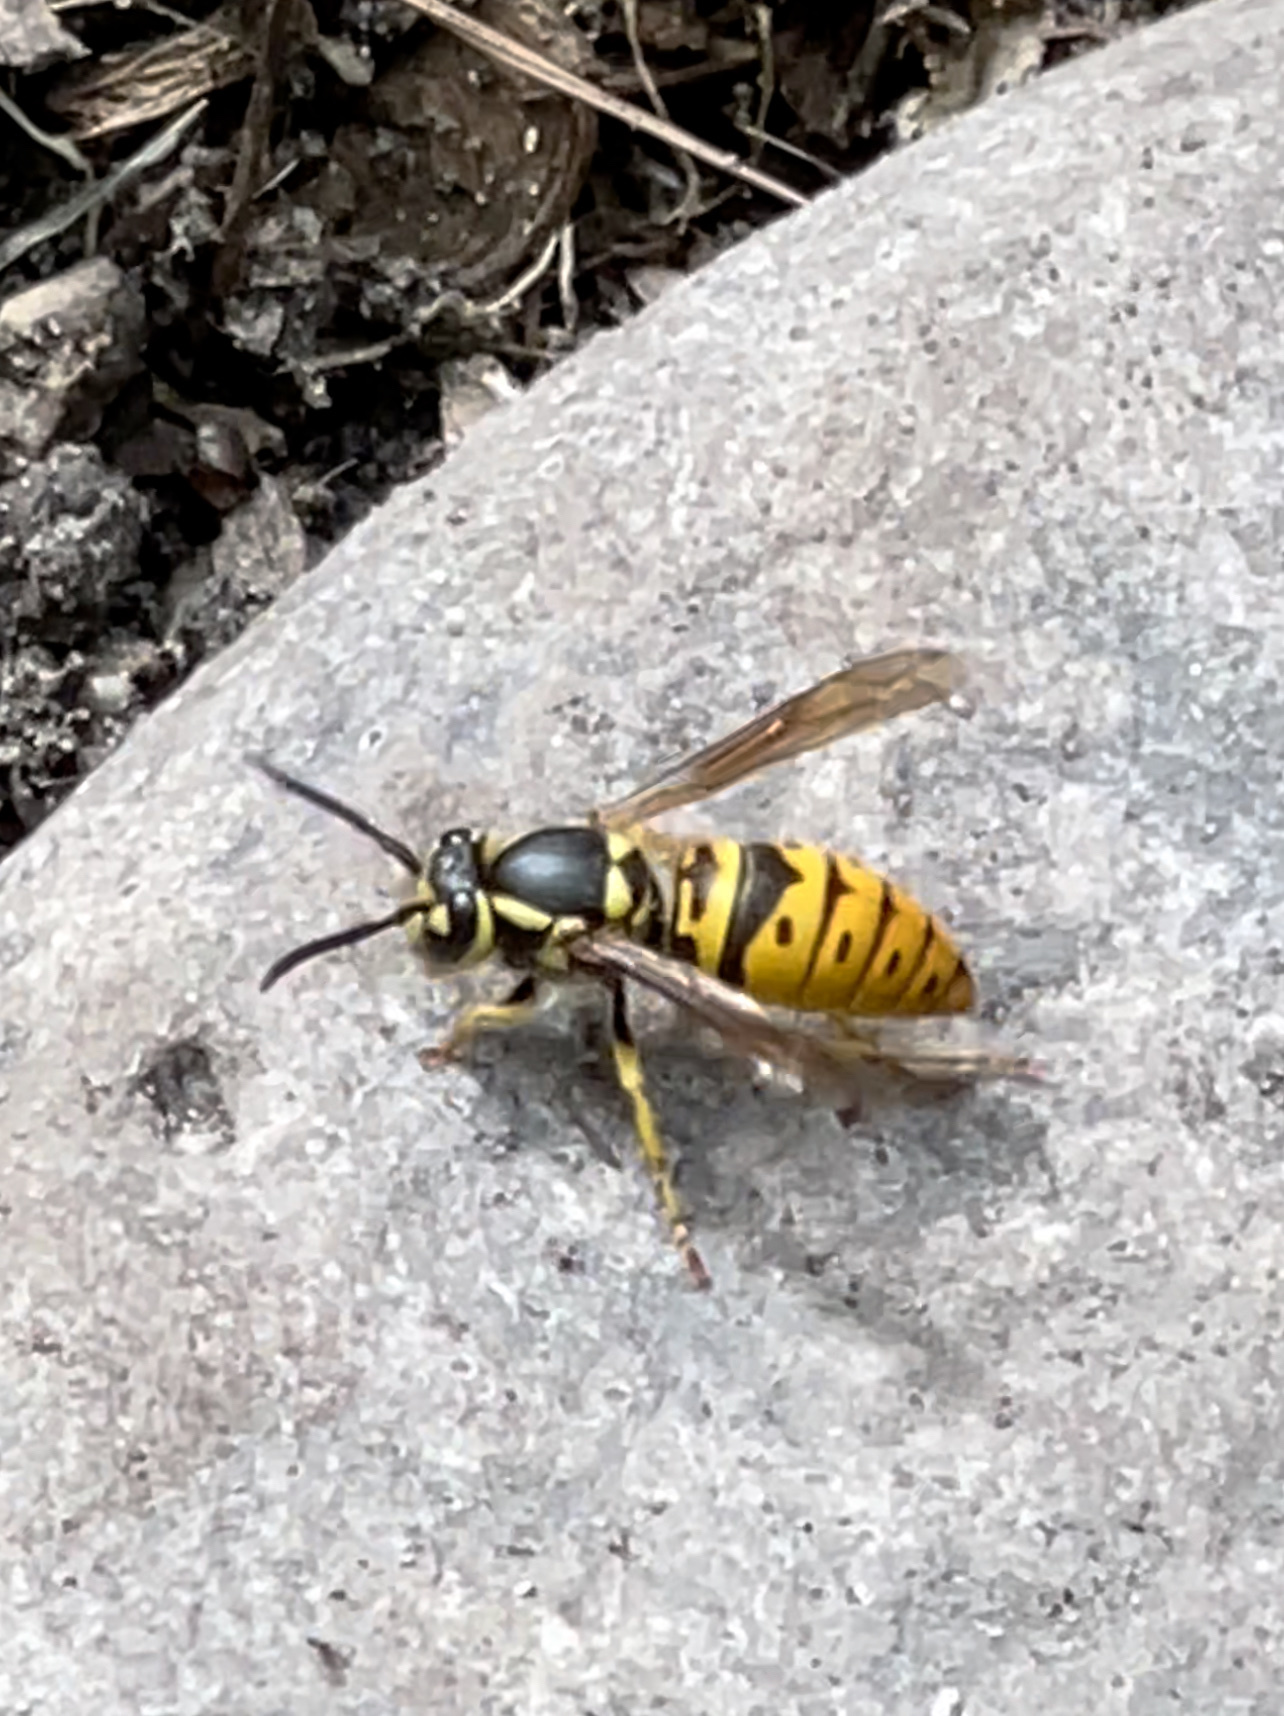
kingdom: Animalia
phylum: Arthropoda
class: Insecta
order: Hymenoptera
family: Vespidae
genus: Vespula
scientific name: Vespula maculifrons
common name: Eastern yellowjacket
